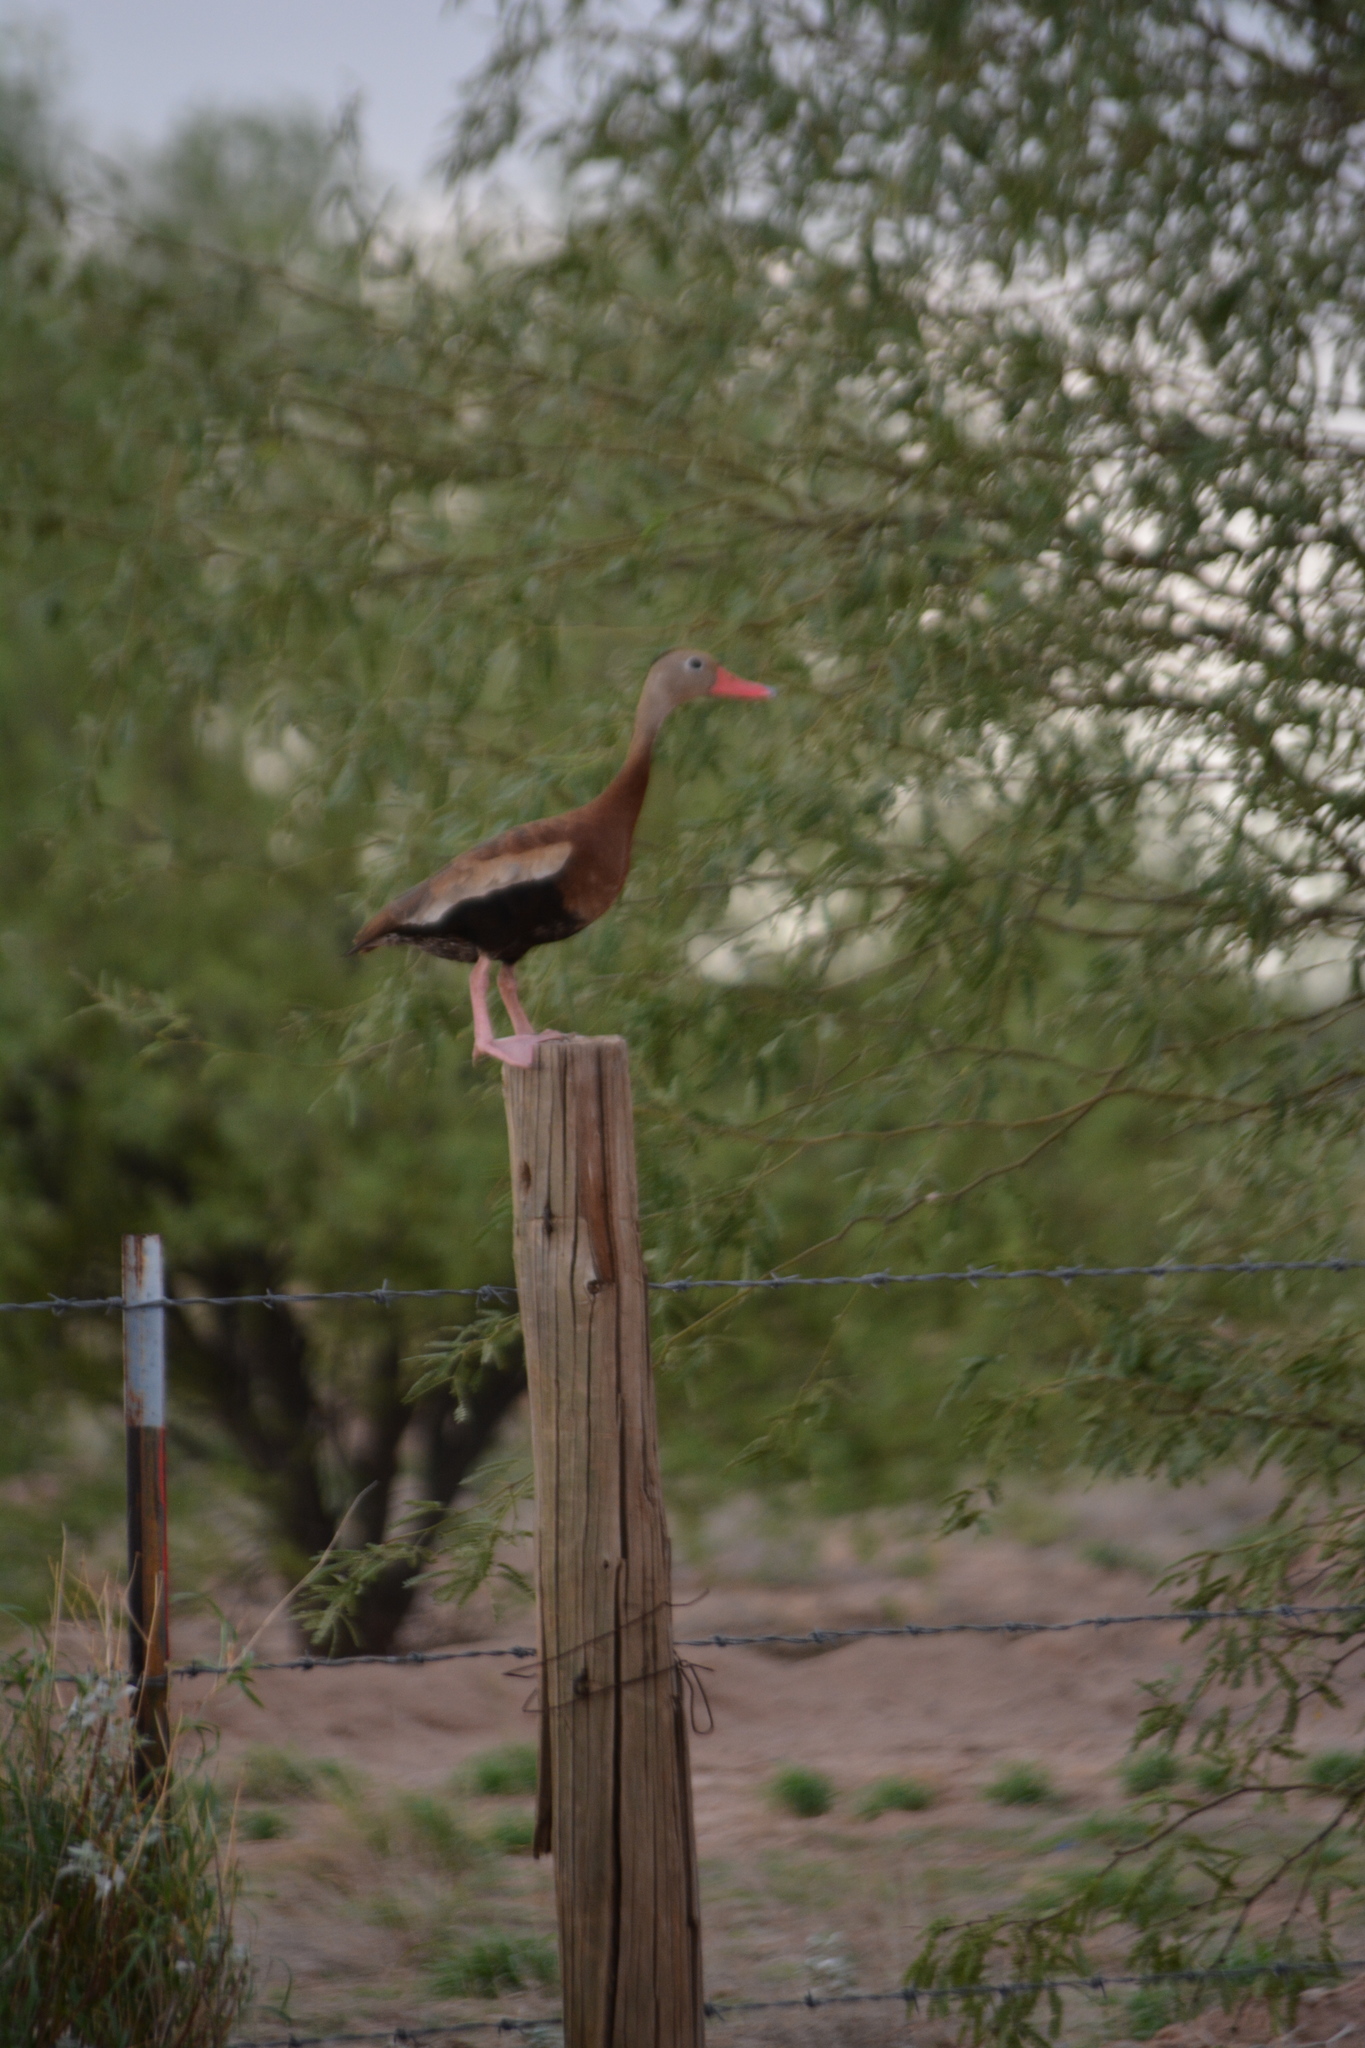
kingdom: Animalia
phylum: Chordata
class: Aves
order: Anseriformes
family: Anatidae
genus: Dendrocygna
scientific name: Dendrocygna autumnalis
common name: Black-bellied whistling duck
